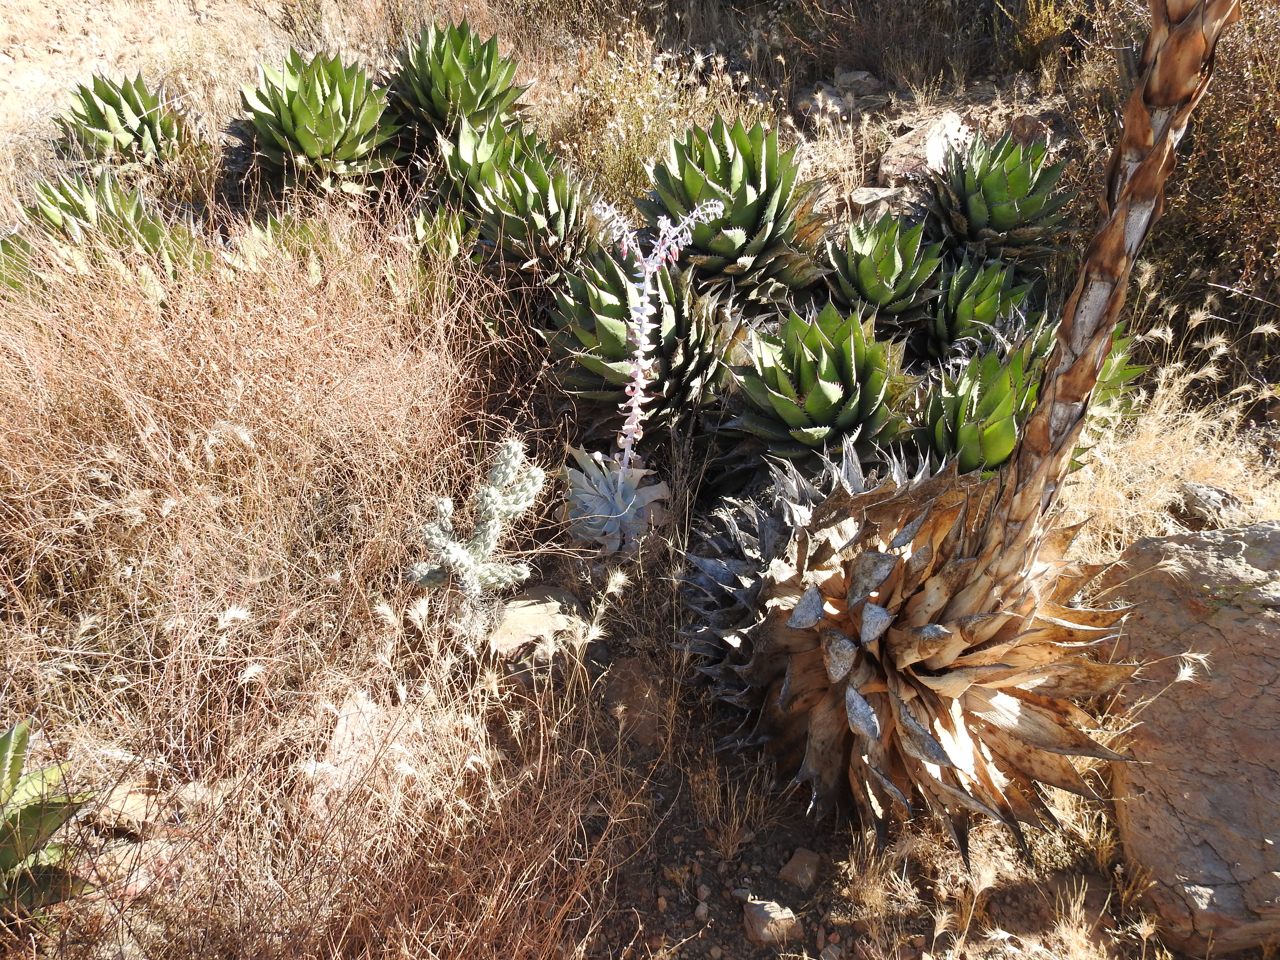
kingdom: Plantae
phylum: Tracheophyta
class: Liliopsida
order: Asparagales
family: Asparagaceae
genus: Agave
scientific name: Agave shawii
